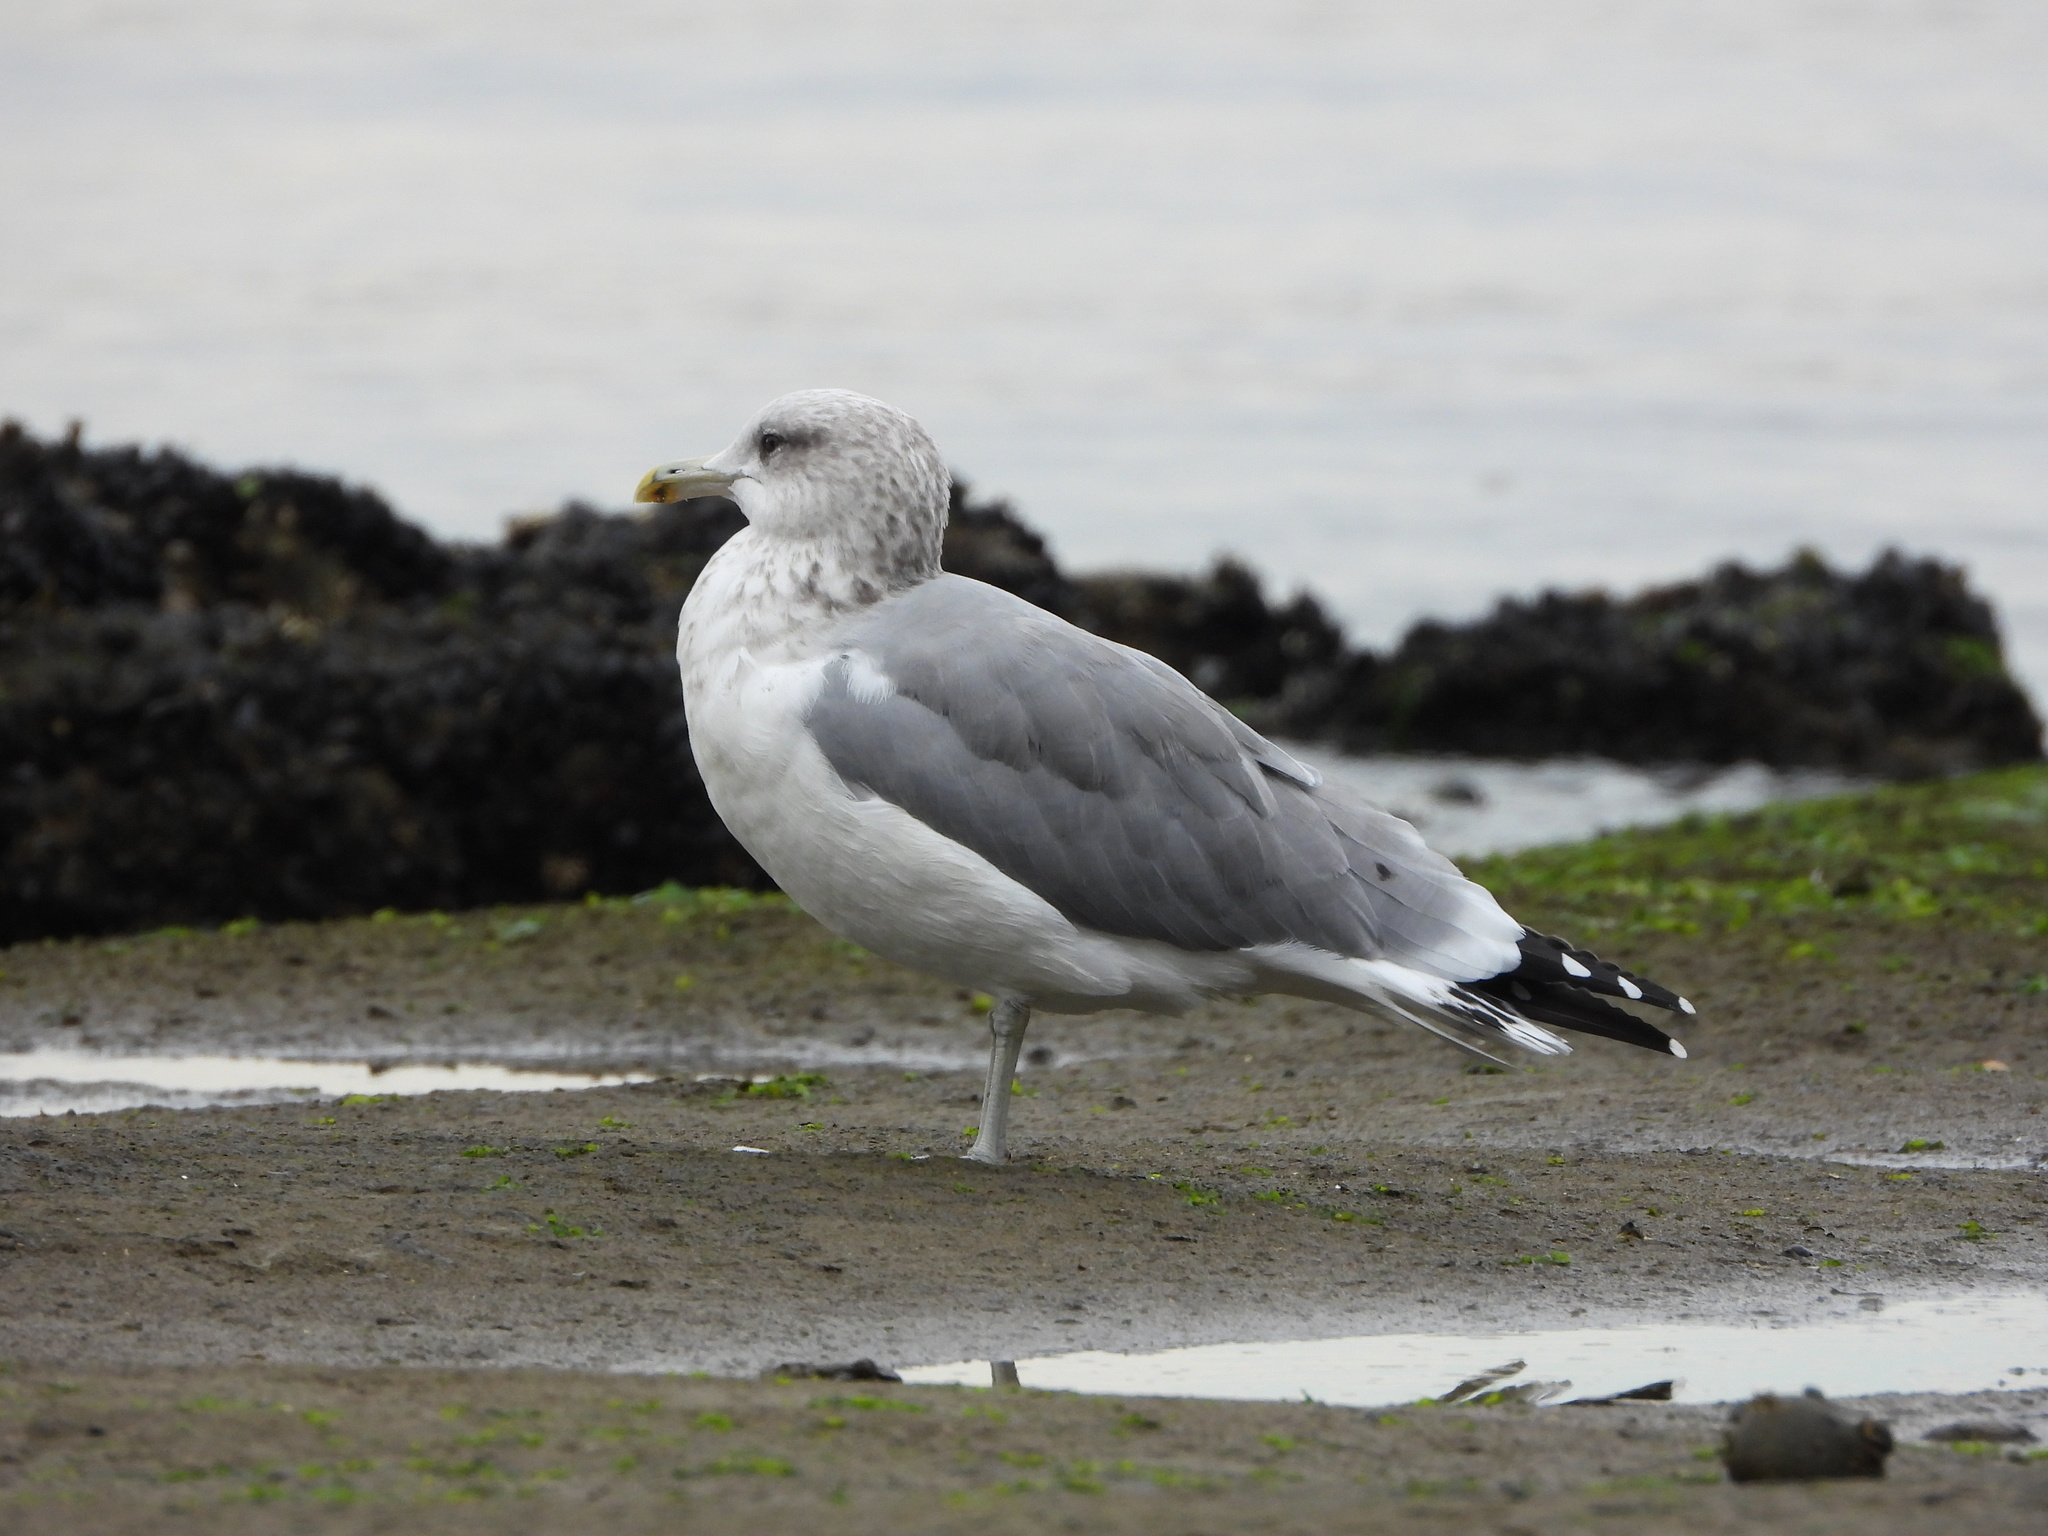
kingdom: Animalia
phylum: Chordata
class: Aves
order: Charadriiformes
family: Laridae
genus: Larus
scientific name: Larus californicus
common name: California gull
